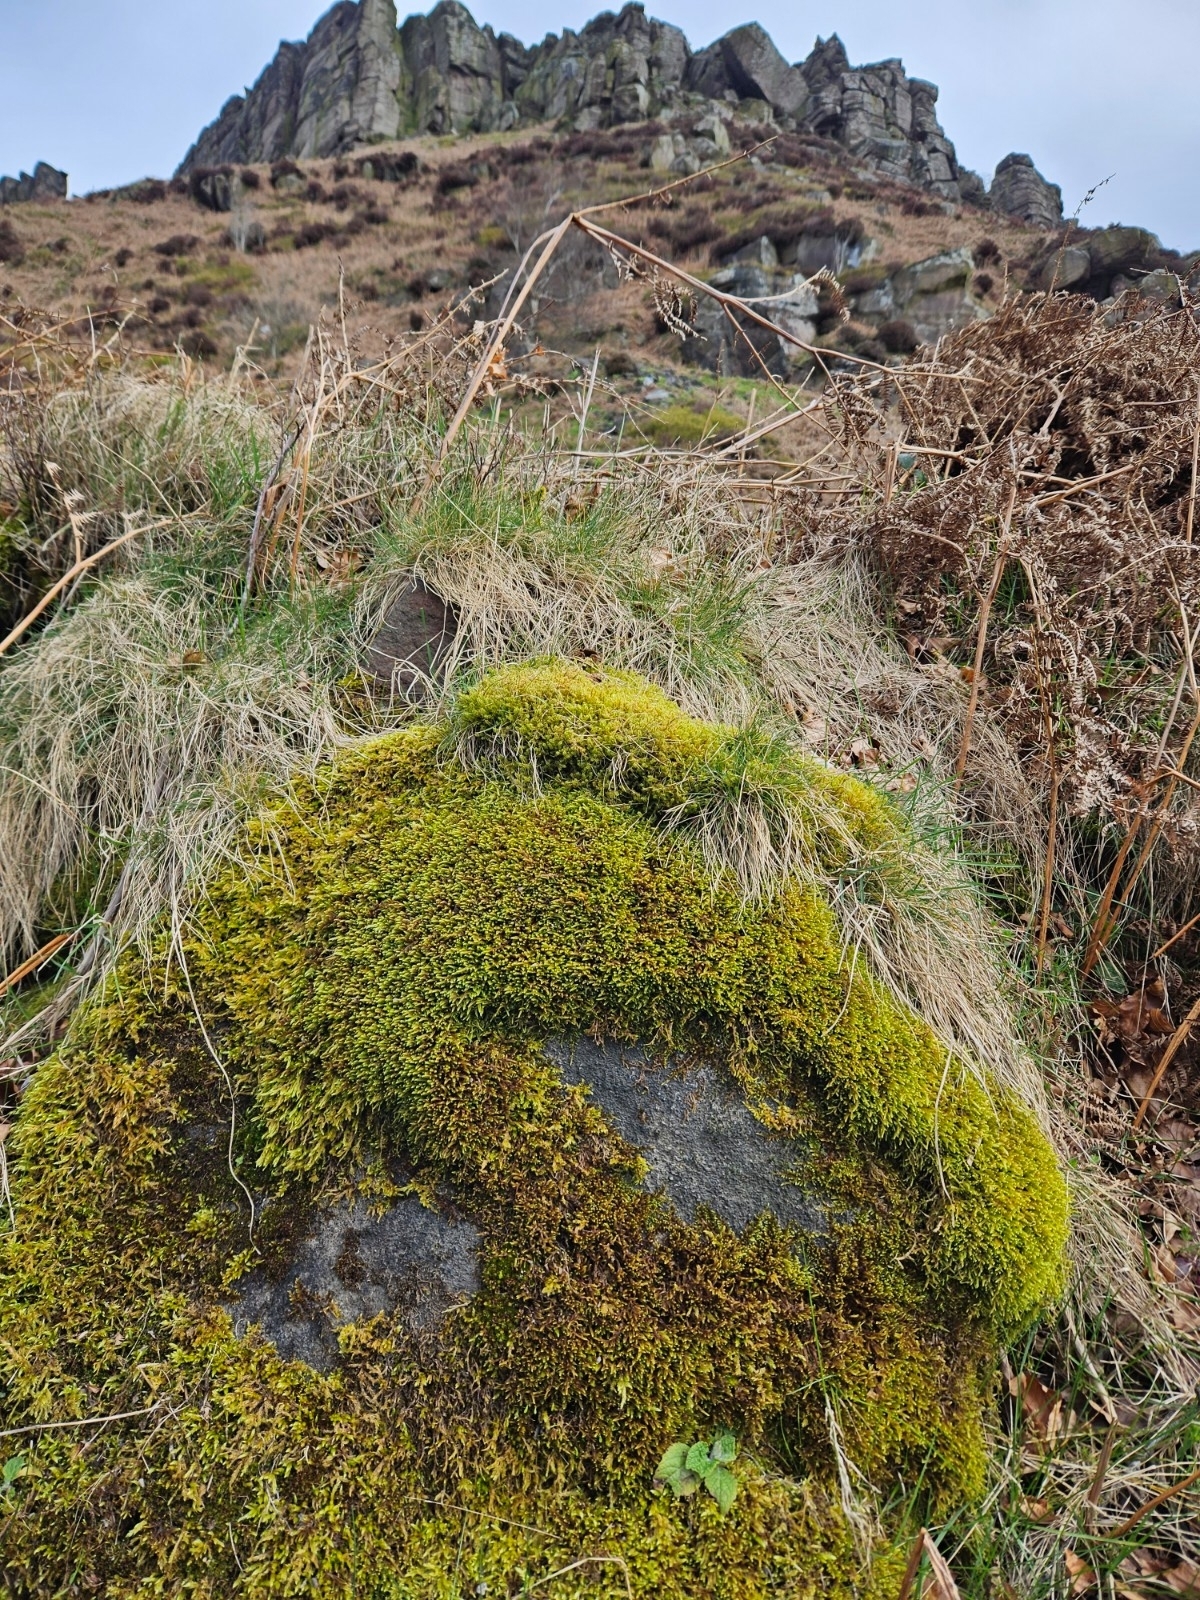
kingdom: Plantae
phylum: Bryophyta
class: Bryopsida
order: Hypnales
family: Hypnaceae
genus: Hypnum
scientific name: Hypnum cupressiforme
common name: Cypress-leaved plait-moss
